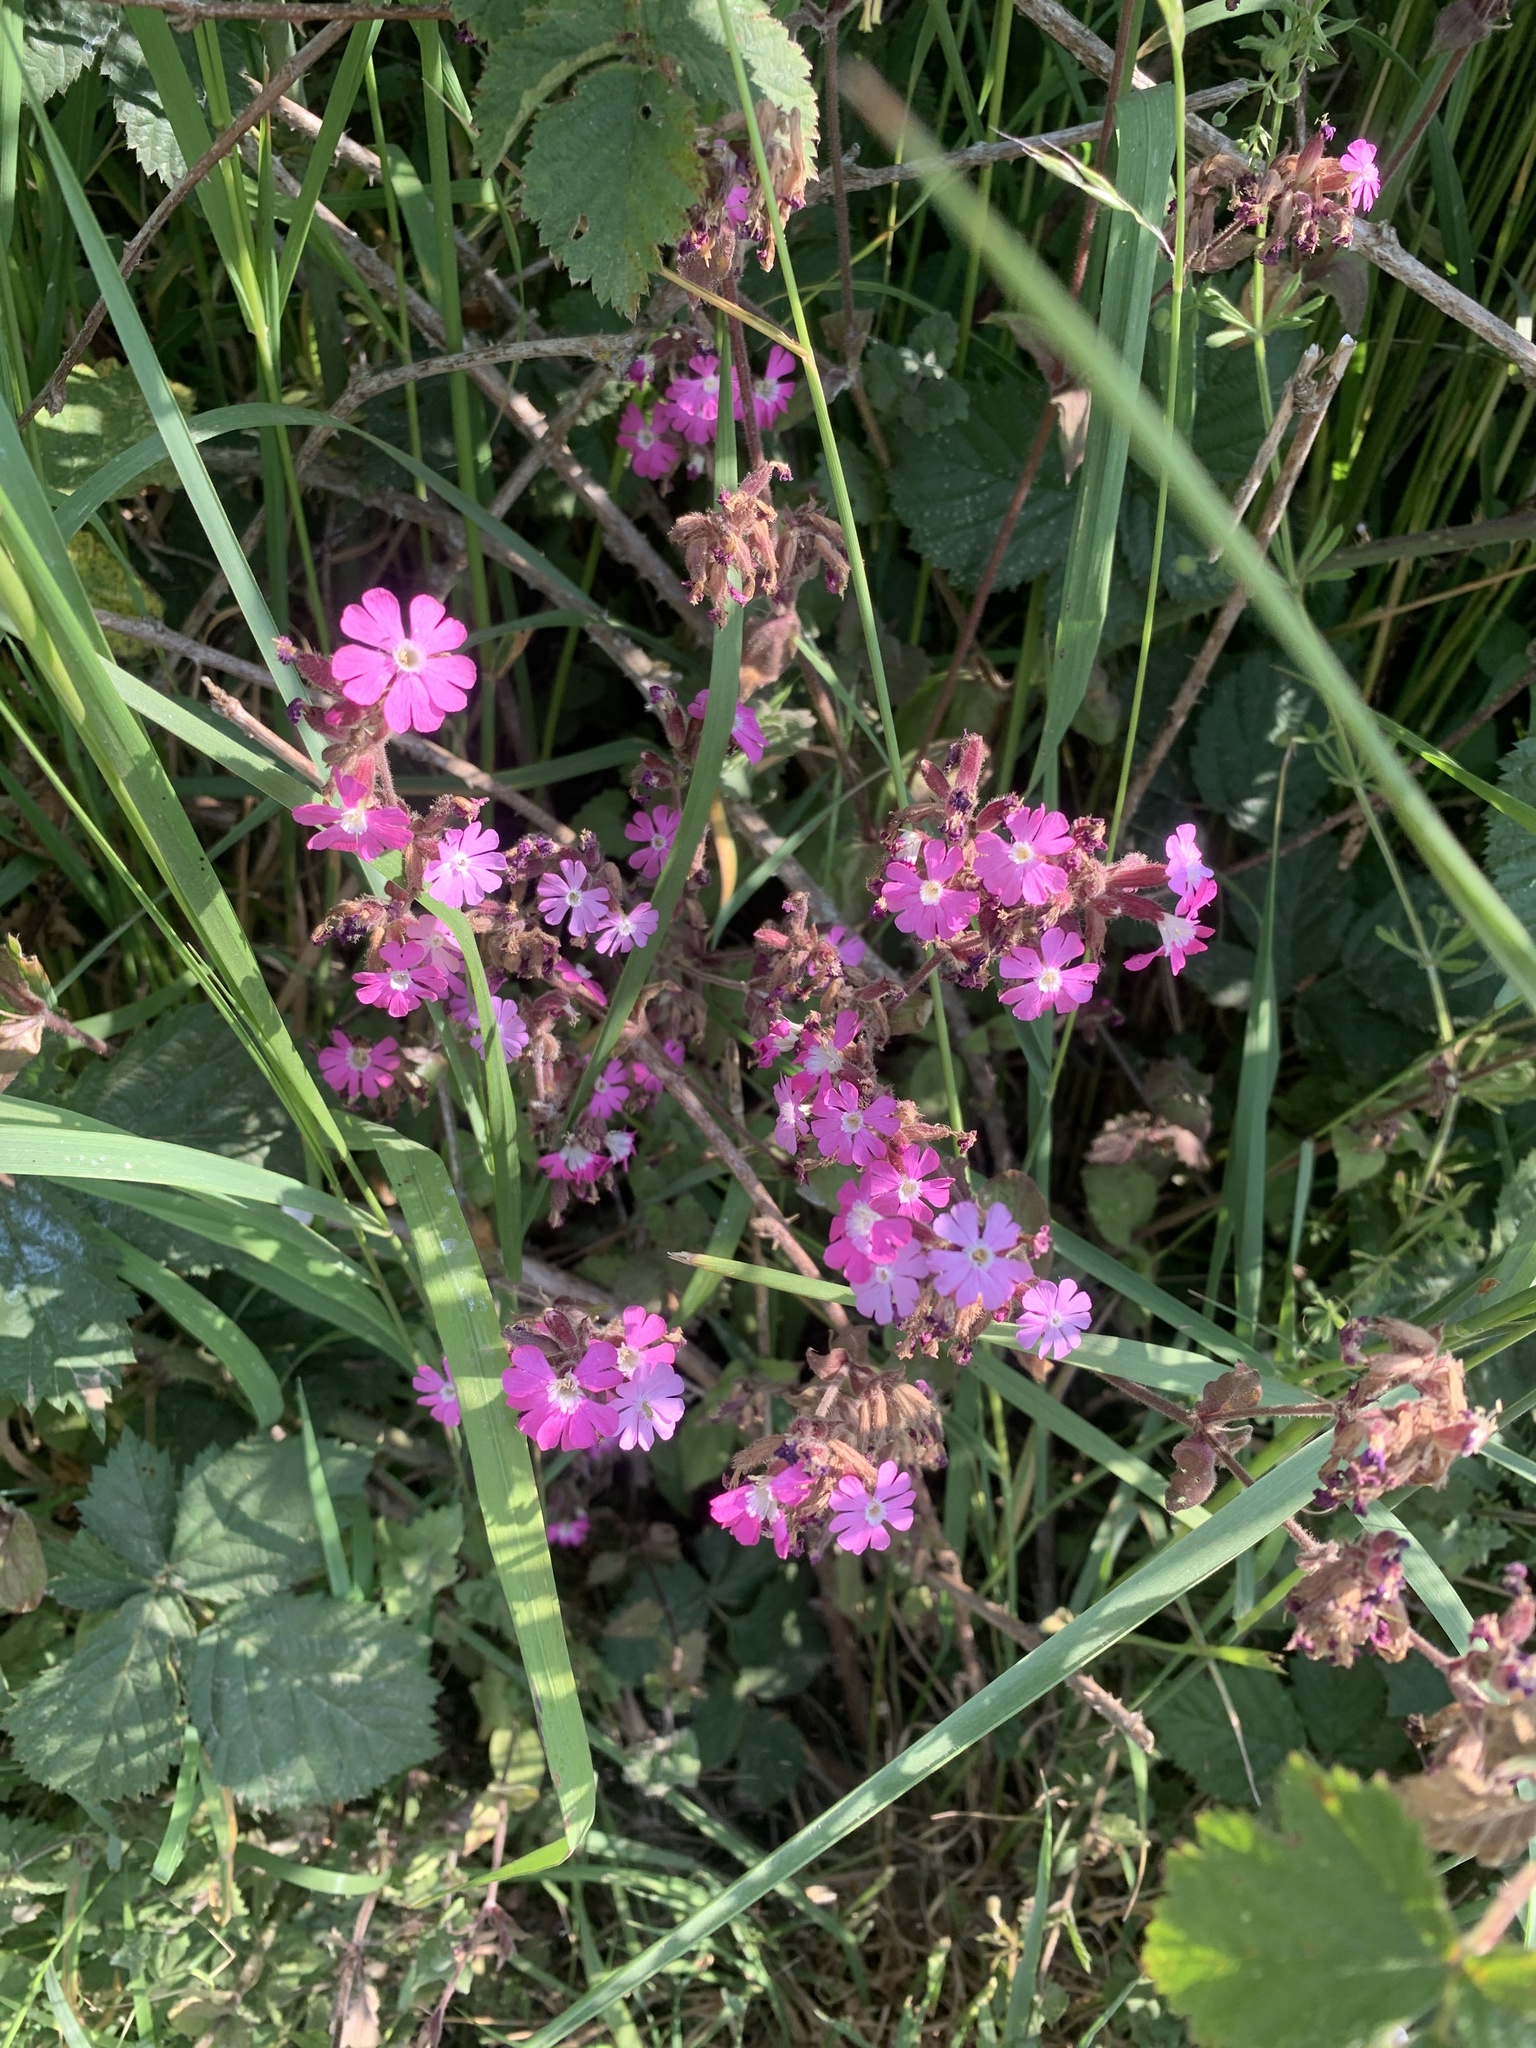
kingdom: Plantae
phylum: Tracheophyta
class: Magnoliopsida
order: Caryophyllales
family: Caryophyllaceae
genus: Silene
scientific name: Silene dioica
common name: Red campion
